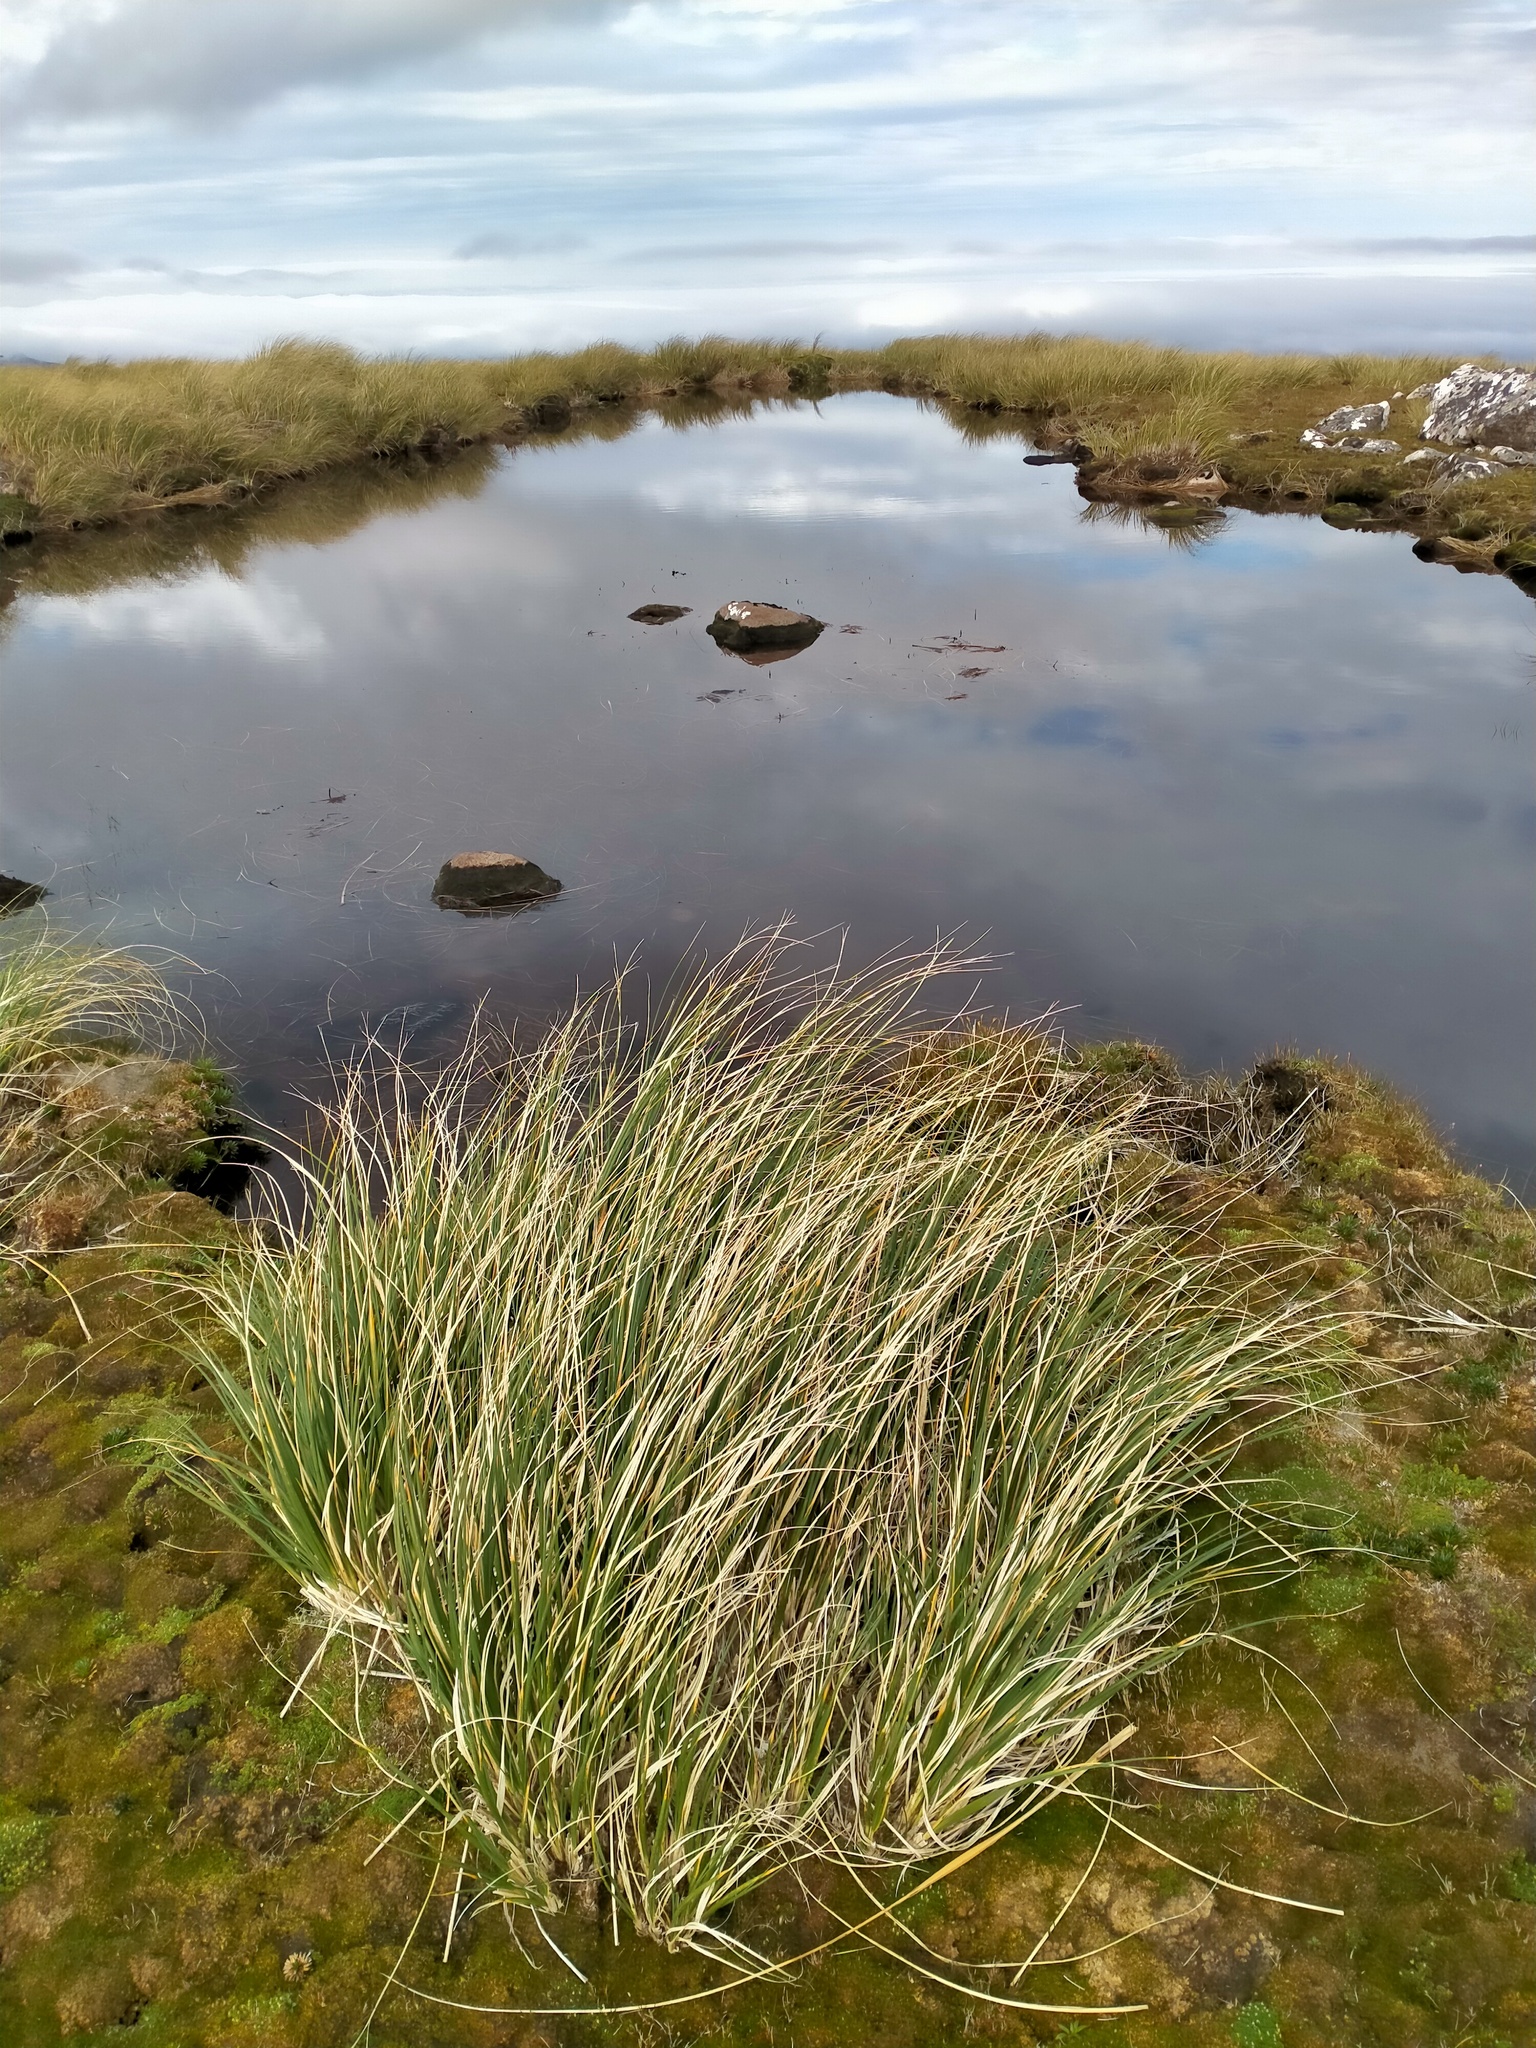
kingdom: Plantae
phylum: Tracheophyta
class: Liliopsida
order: Poales
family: Poaceae
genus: Chionochloa
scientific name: Chionochloa antarctica
